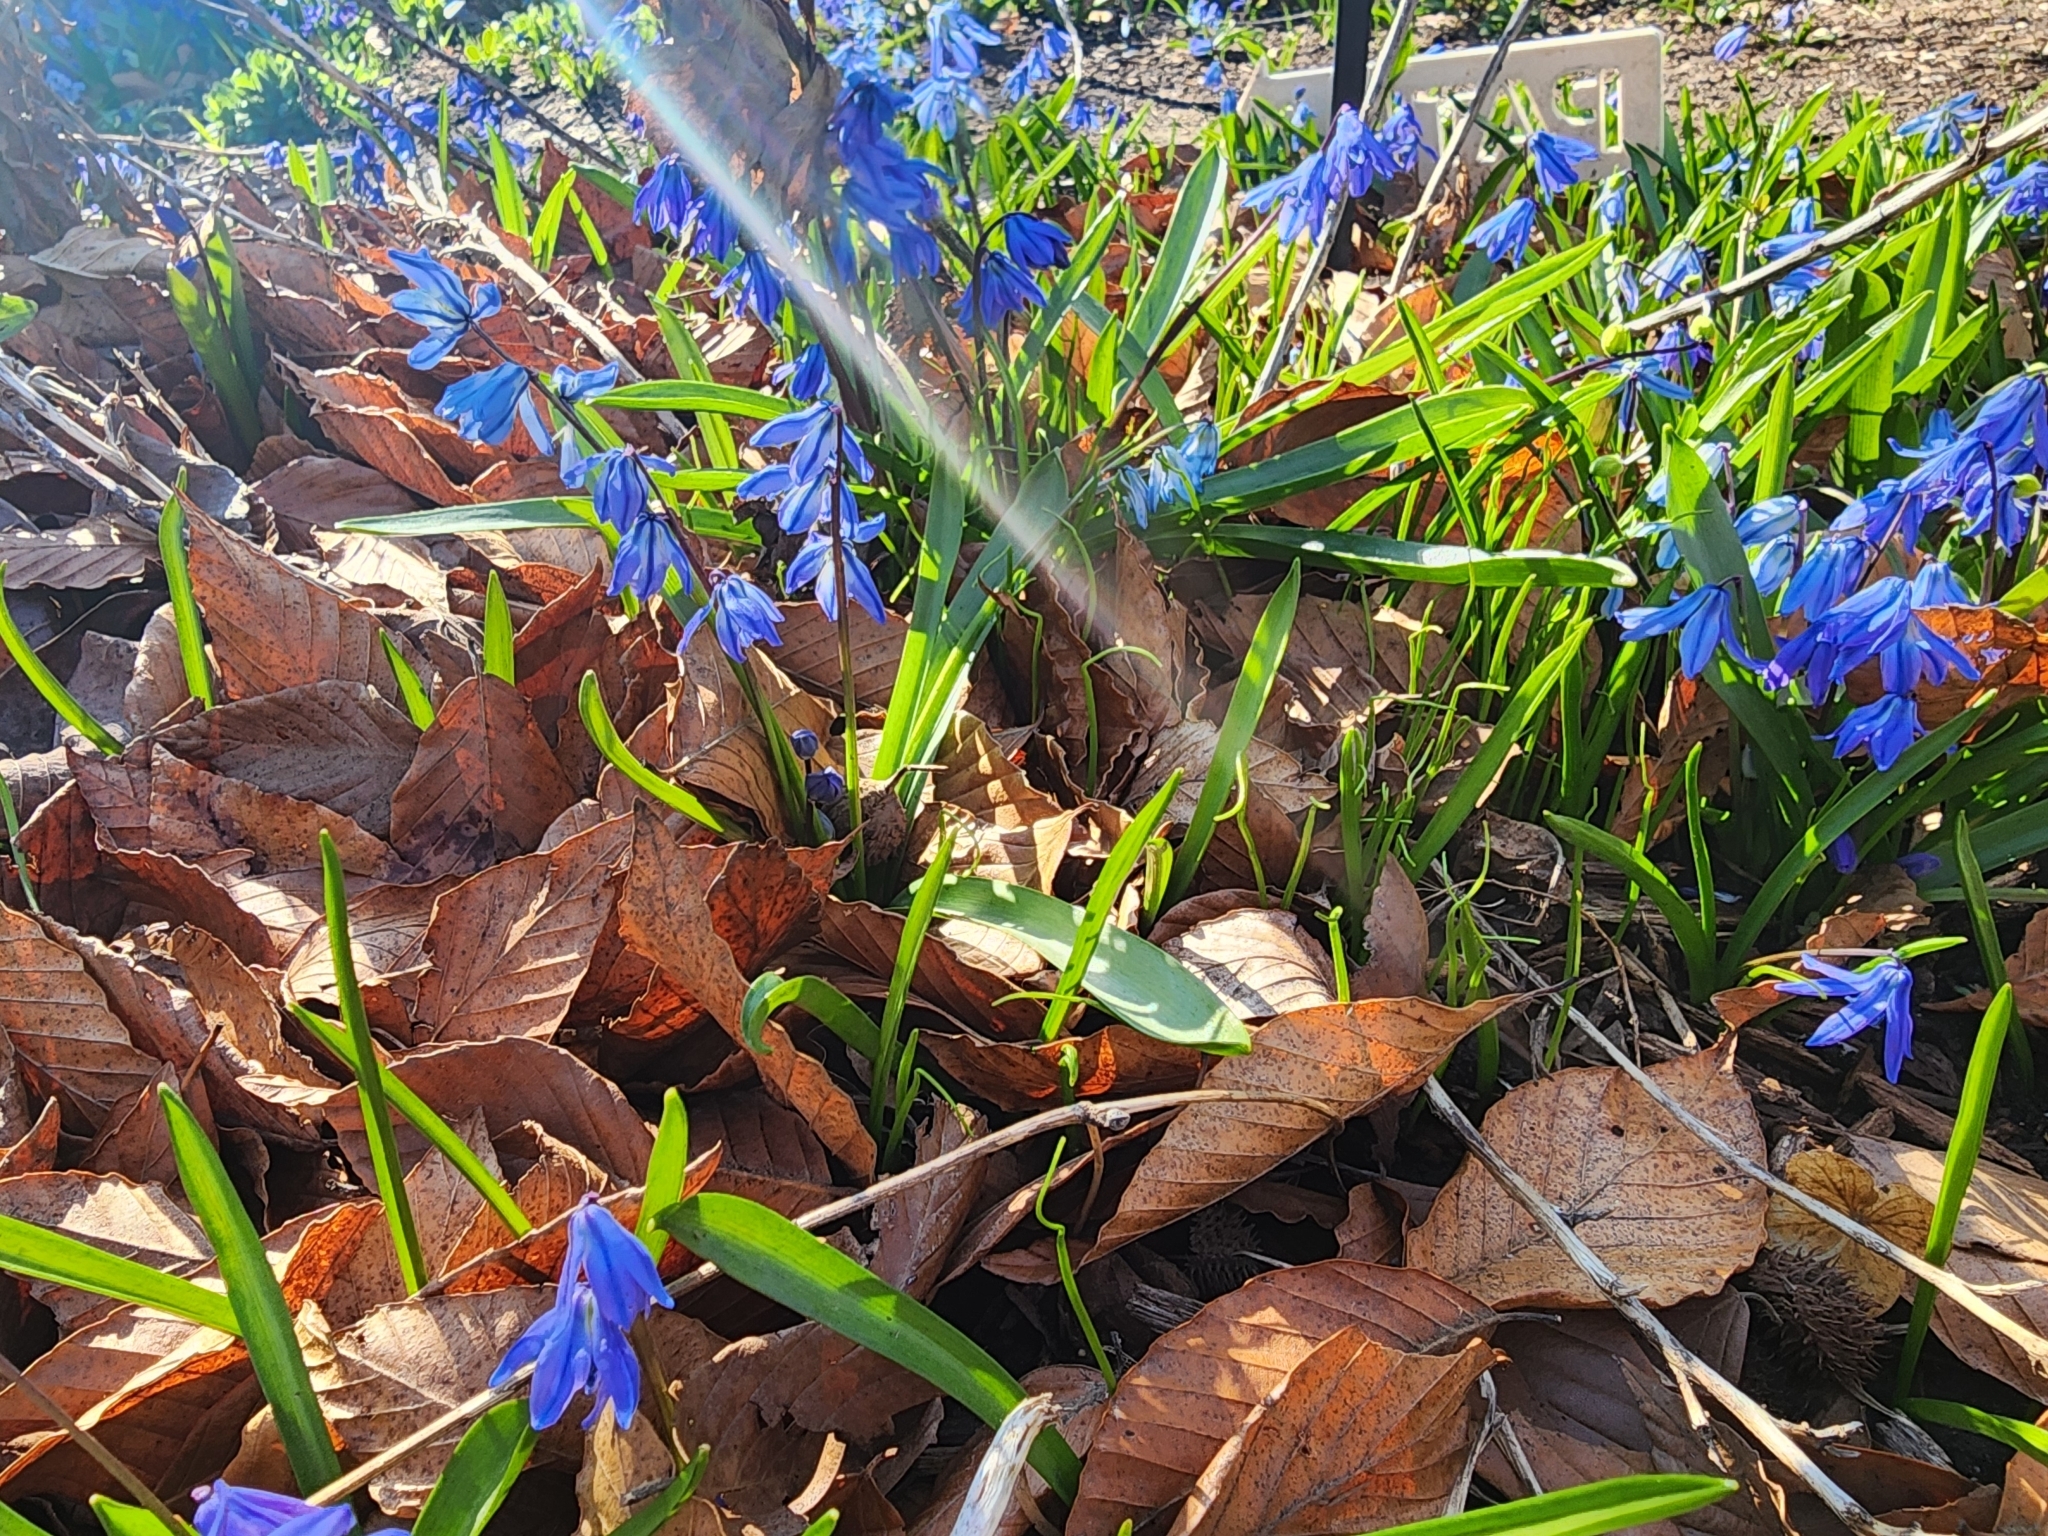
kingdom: Plantae
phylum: Tracheophyta
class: Liliopsida
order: Asparagales
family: Asparagaceae
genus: Scilla
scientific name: Scilla siberica
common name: Siberian squill
